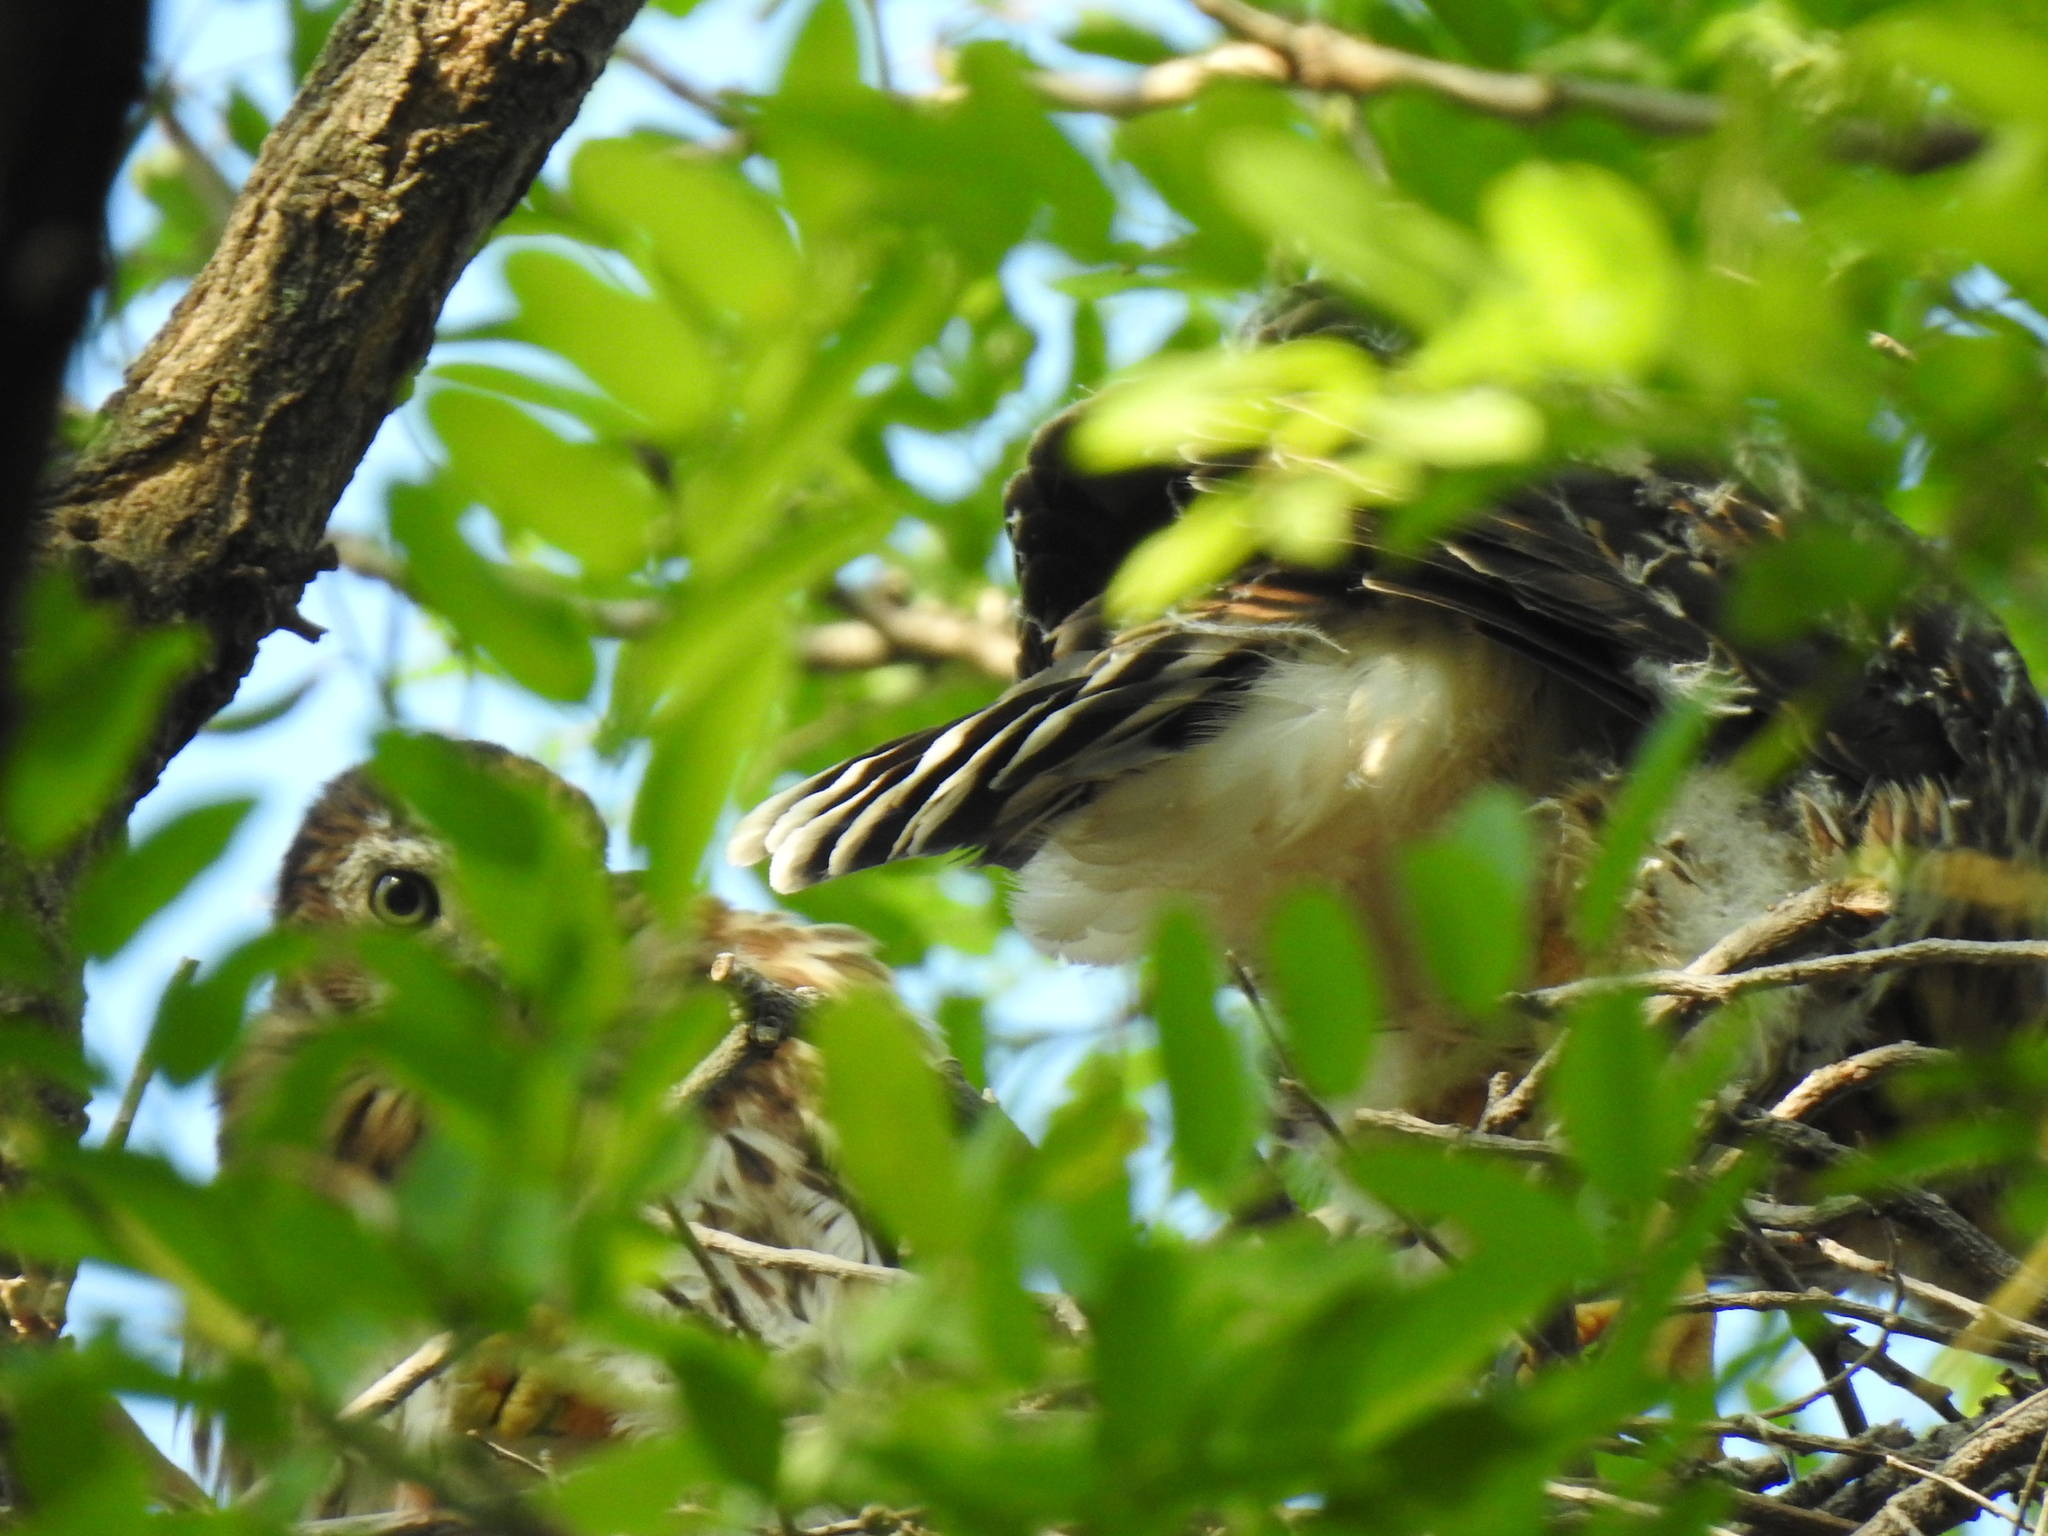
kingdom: Animalia
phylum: Chordata
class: Aves
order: Accipitriformes
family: Accipitridae
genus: Accipiter
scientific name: Accipiter cooperii
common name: Cooper's hawk
